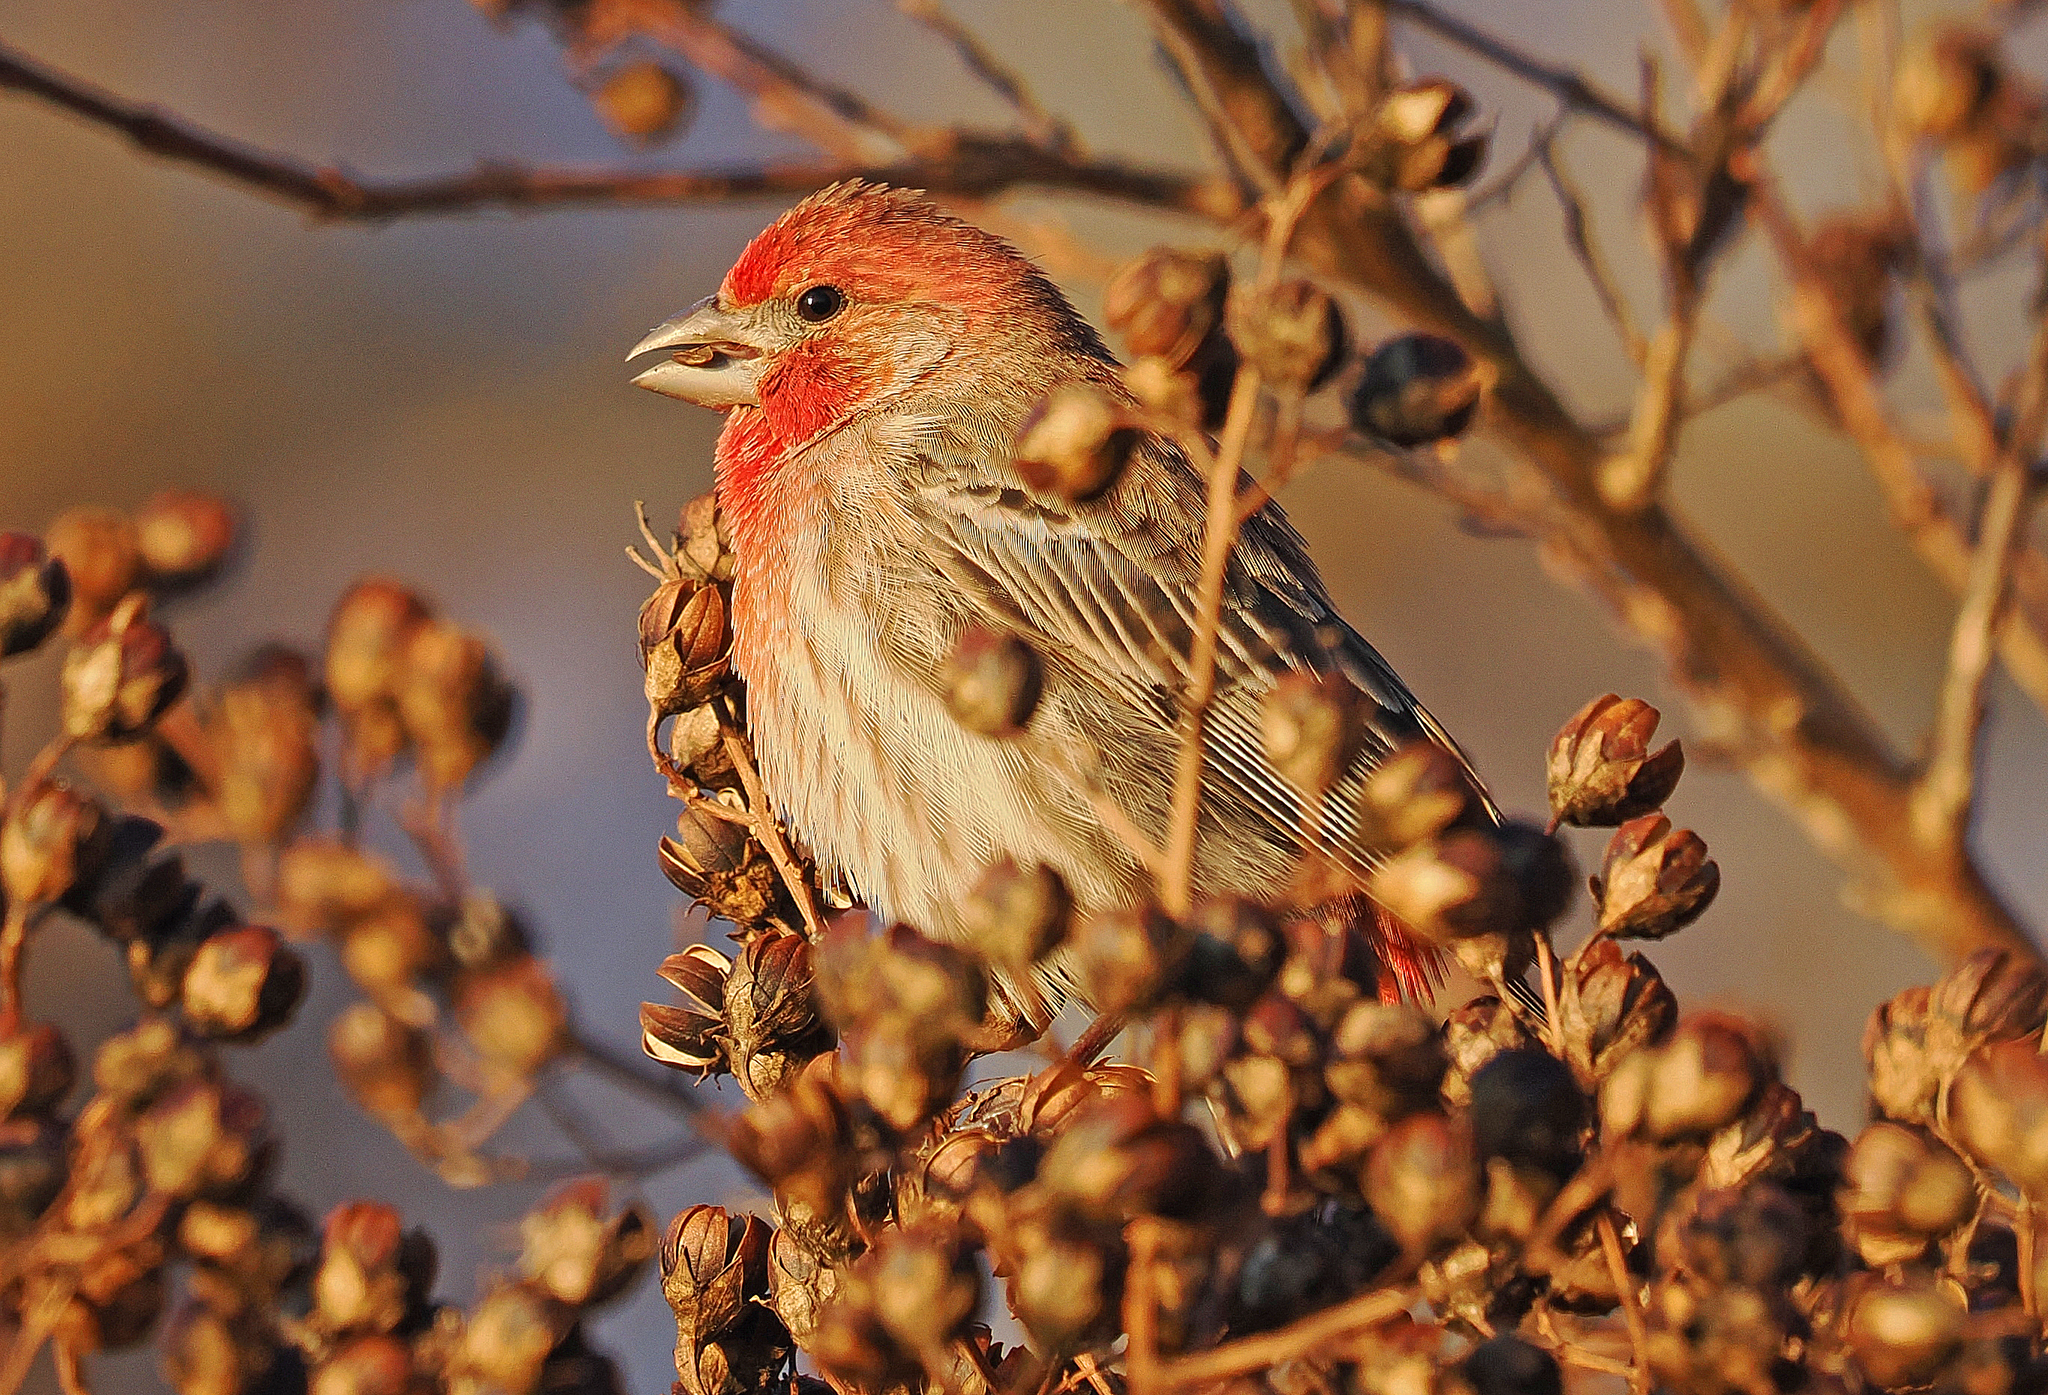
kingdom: Animalia
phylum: Chordata
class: Aves
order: Passeriformes
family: Fringillidae
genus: Haemorhous
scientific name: Haemorhous mexicanus
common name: House finch
